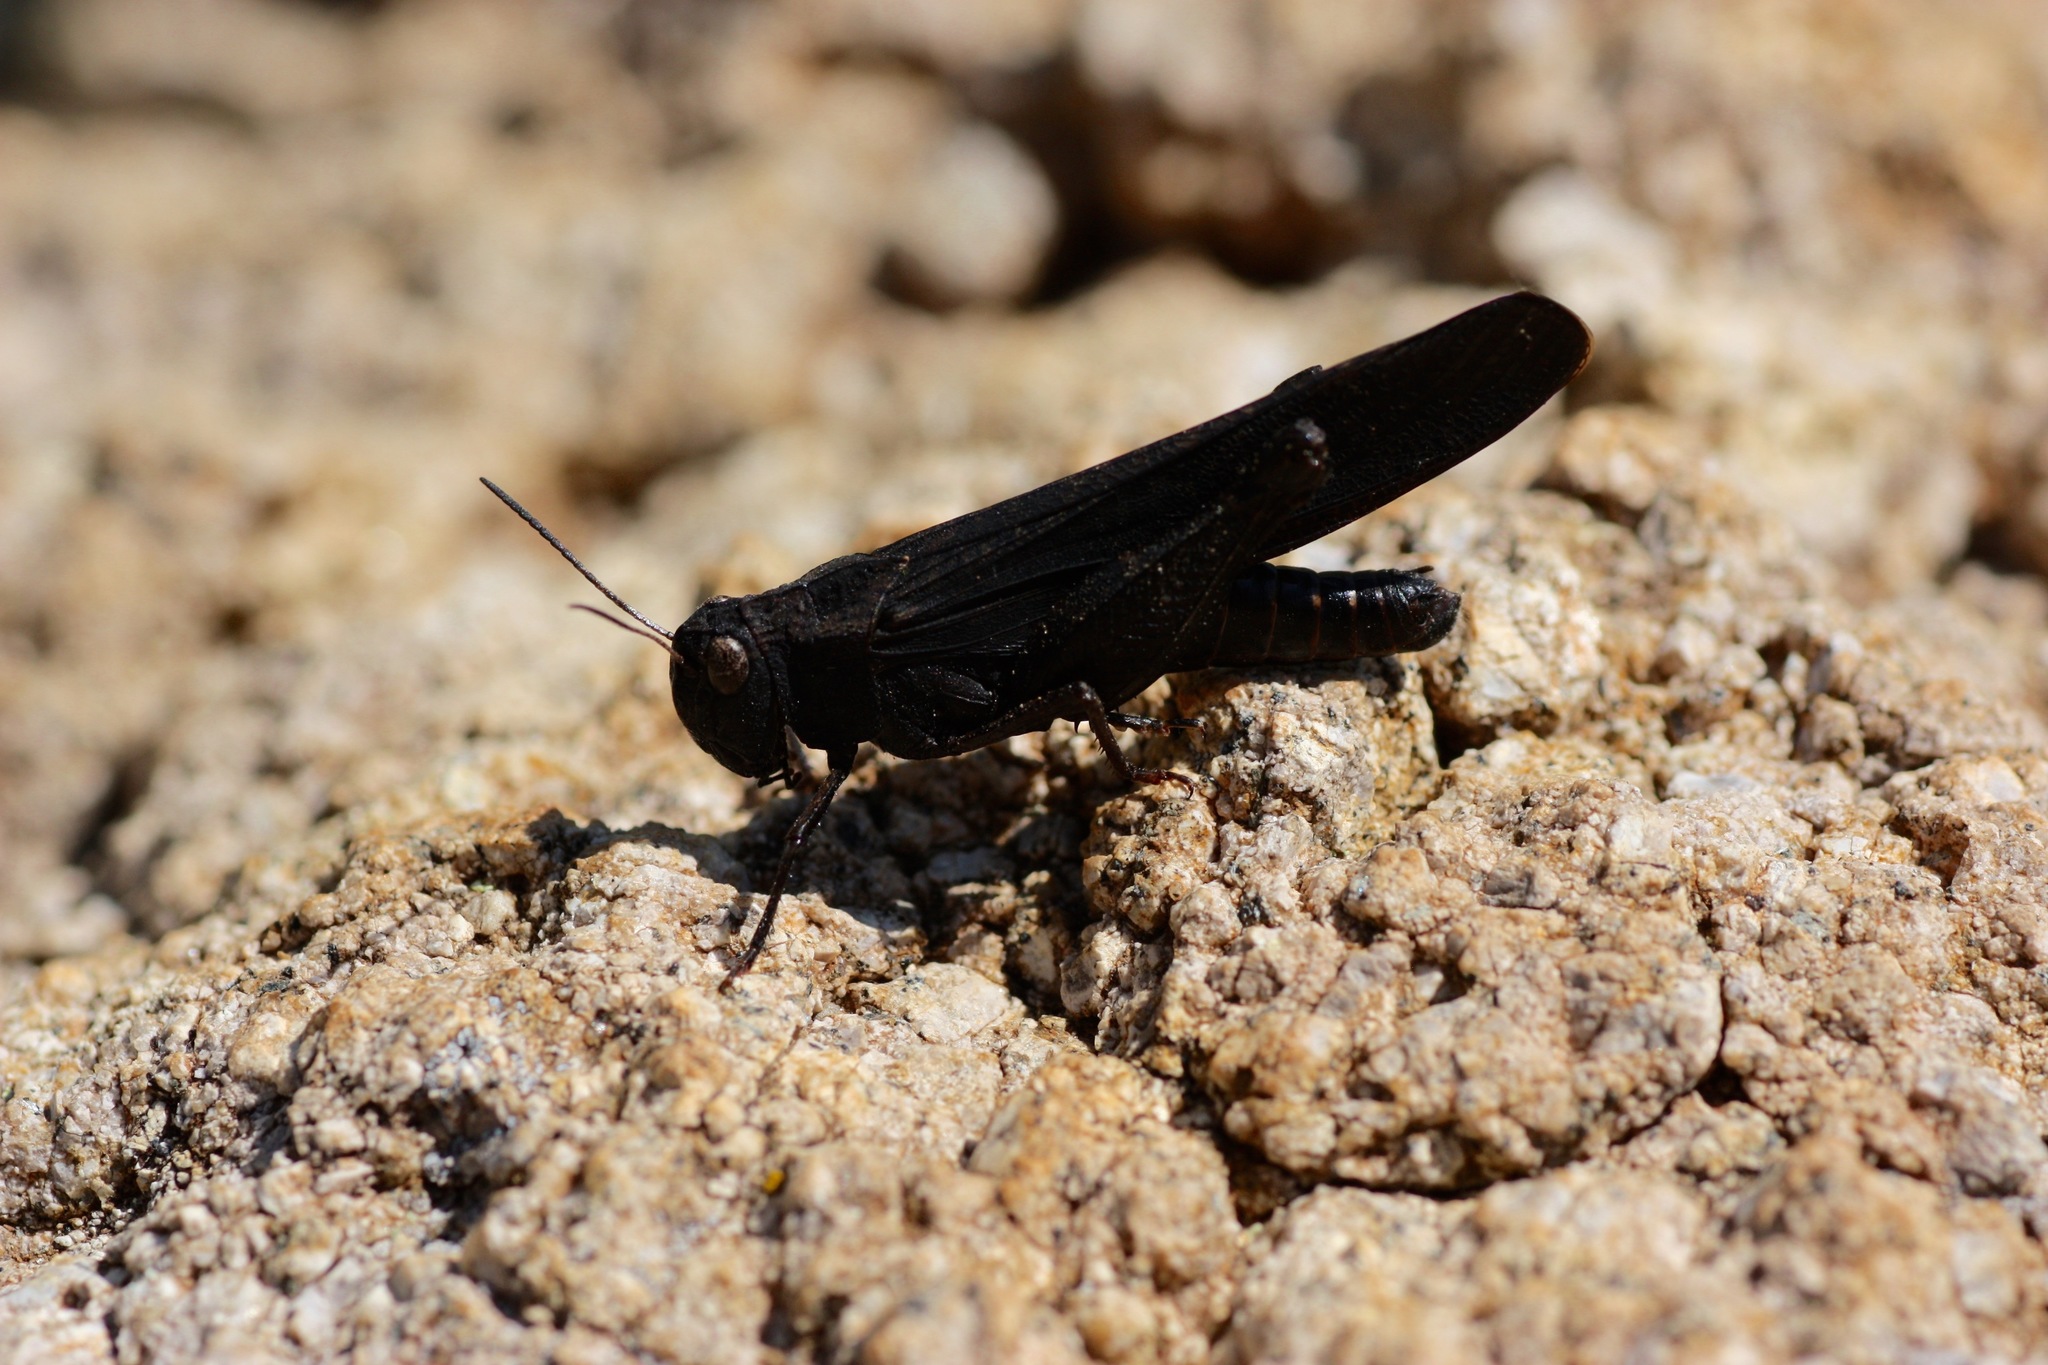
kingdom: Animalia
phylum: Arthropoda
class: Insecta
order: Orthoptera
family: Acrididae
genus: Arphia
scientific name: Arphia pseudo-nietana
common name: Red-winged grasshopper
